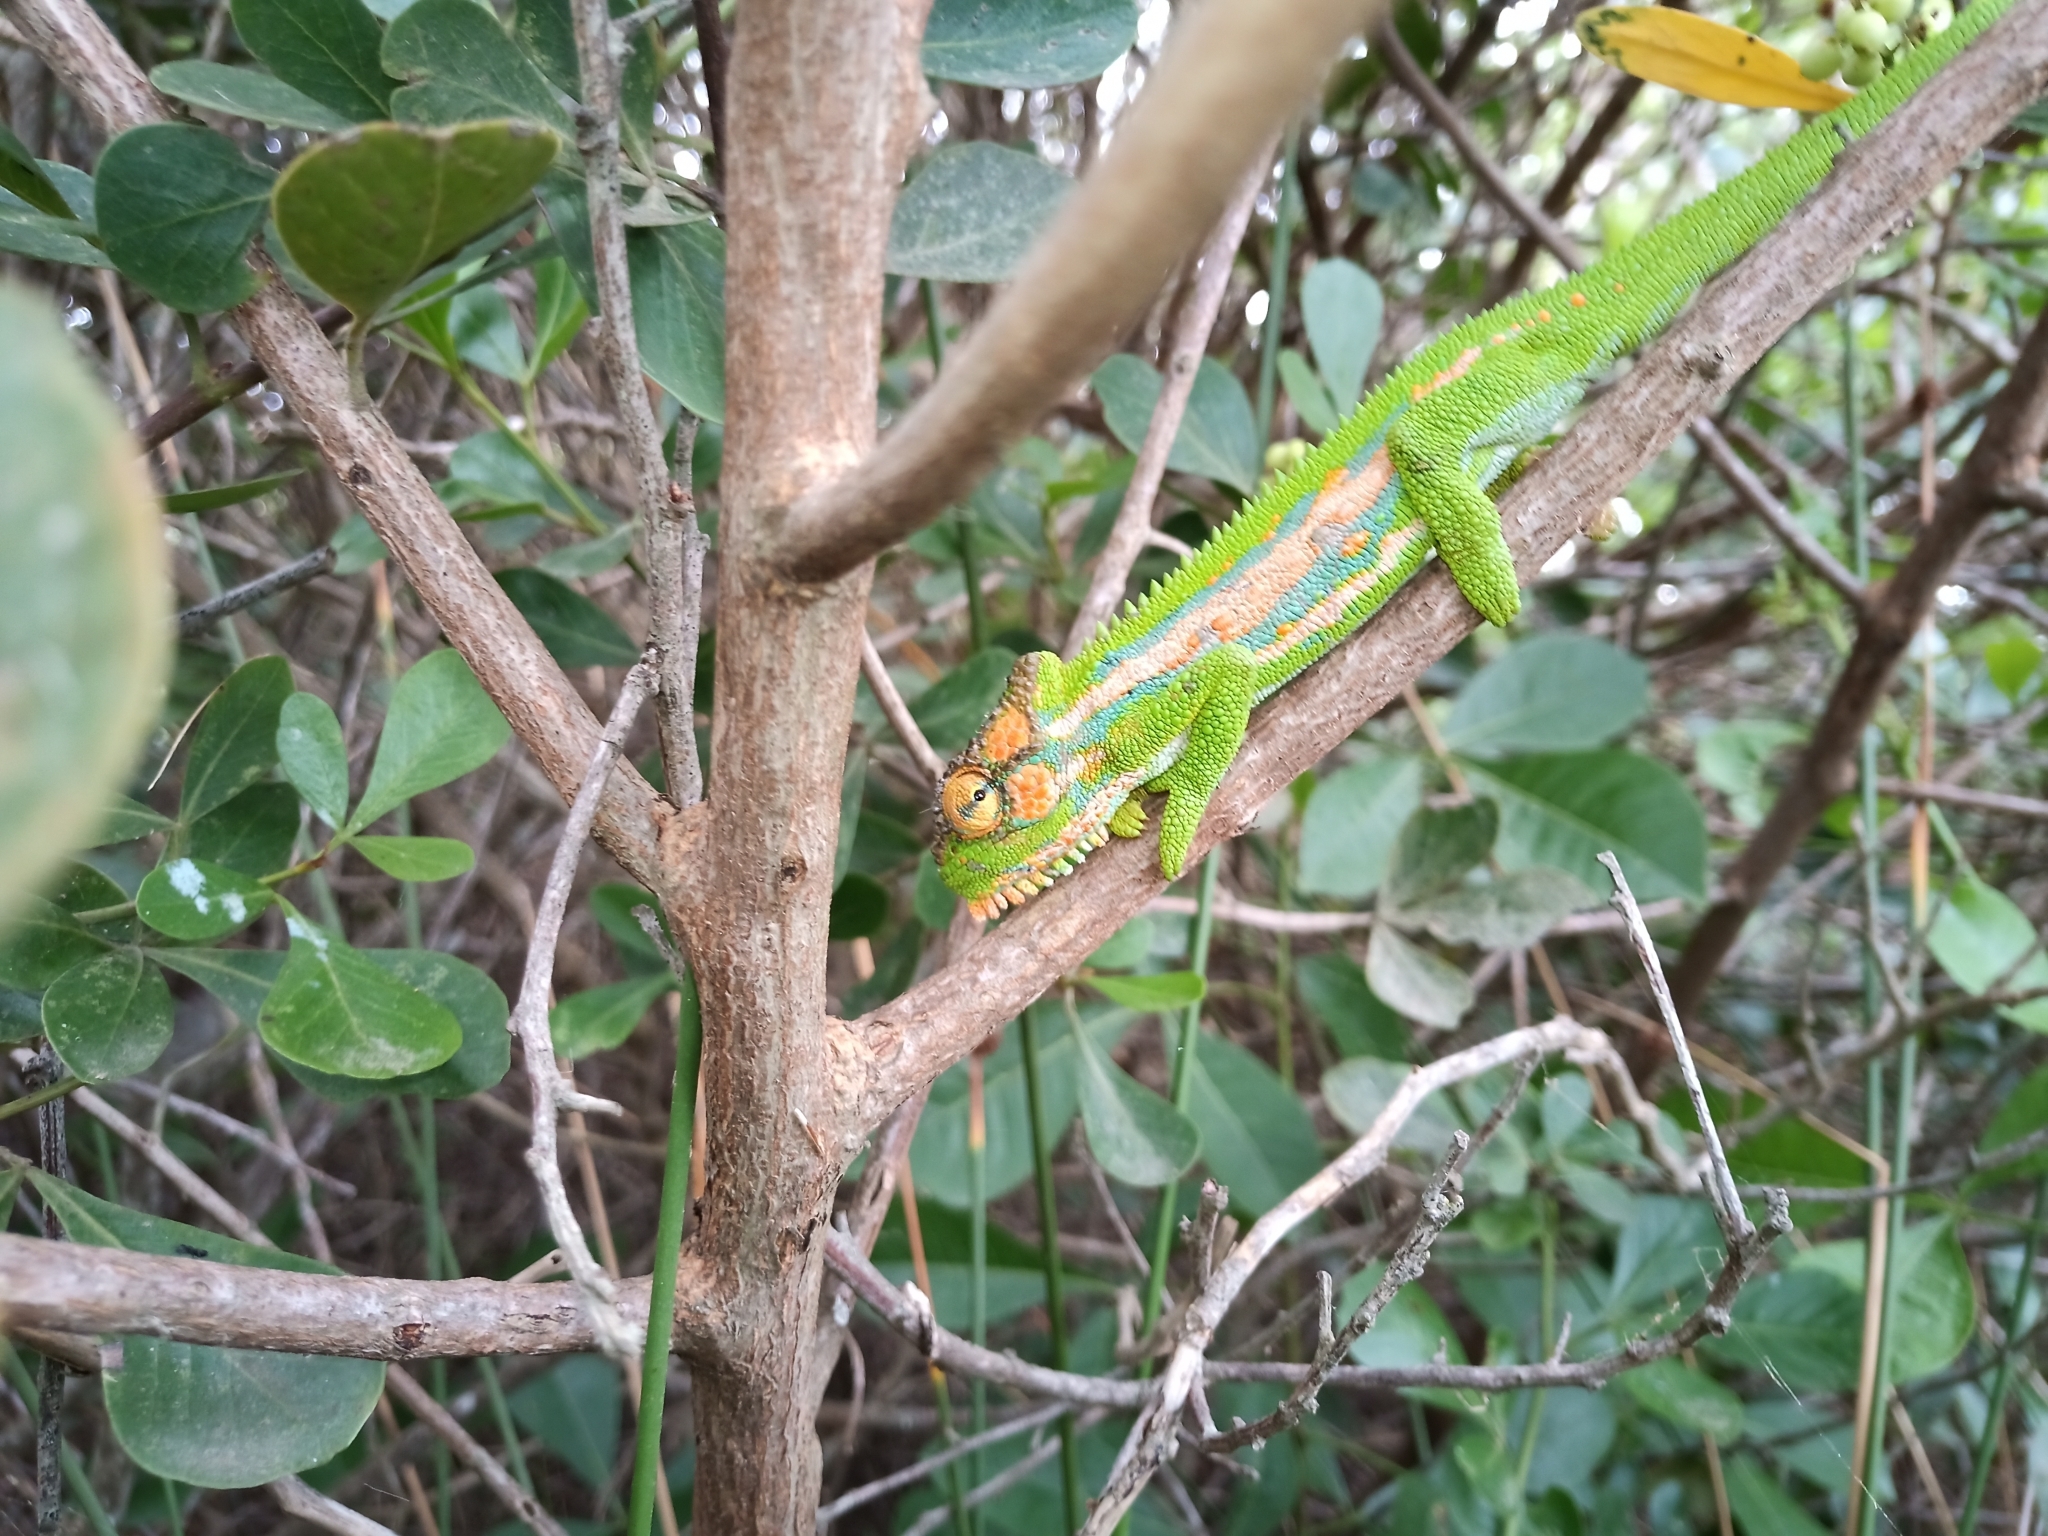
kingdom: Animalia
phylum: Chordata
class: Squamata
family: Chamaeleonidae
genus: Bradypodion
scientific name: Bradypodion pumilum
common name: Cape dwarf chameleon
